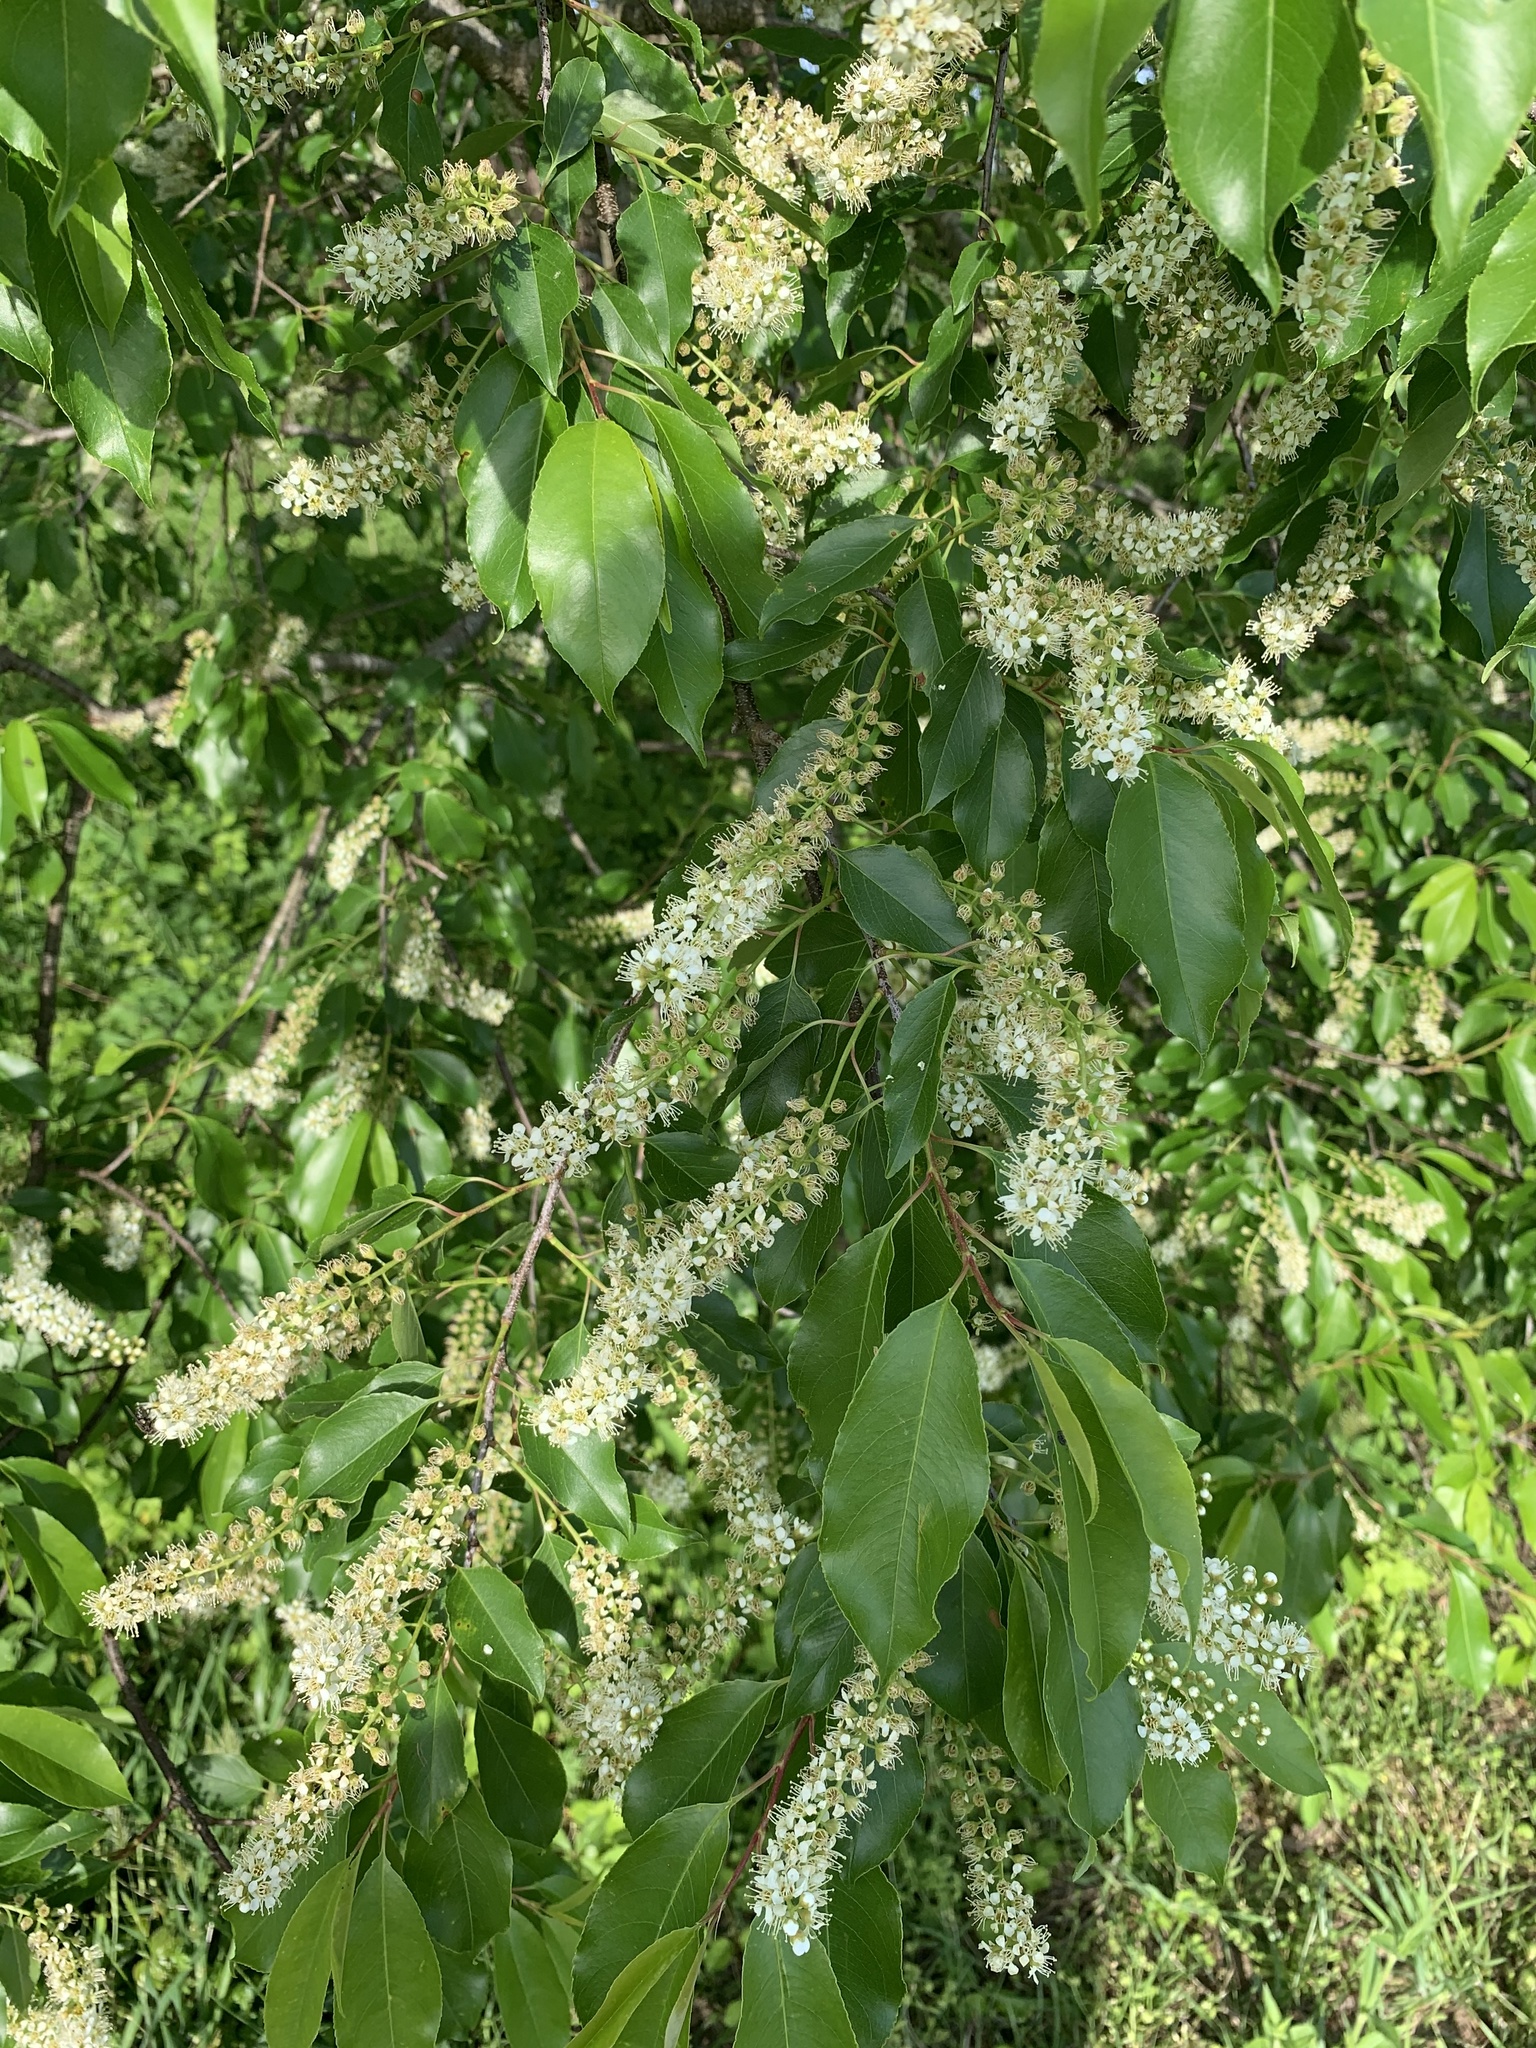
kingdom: Plantae
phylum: Tracheophyta
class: Magnoliopsida
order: Rosales
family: Rosaceae
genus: Prunus
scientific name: Prunus serotina
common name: Black cherry
